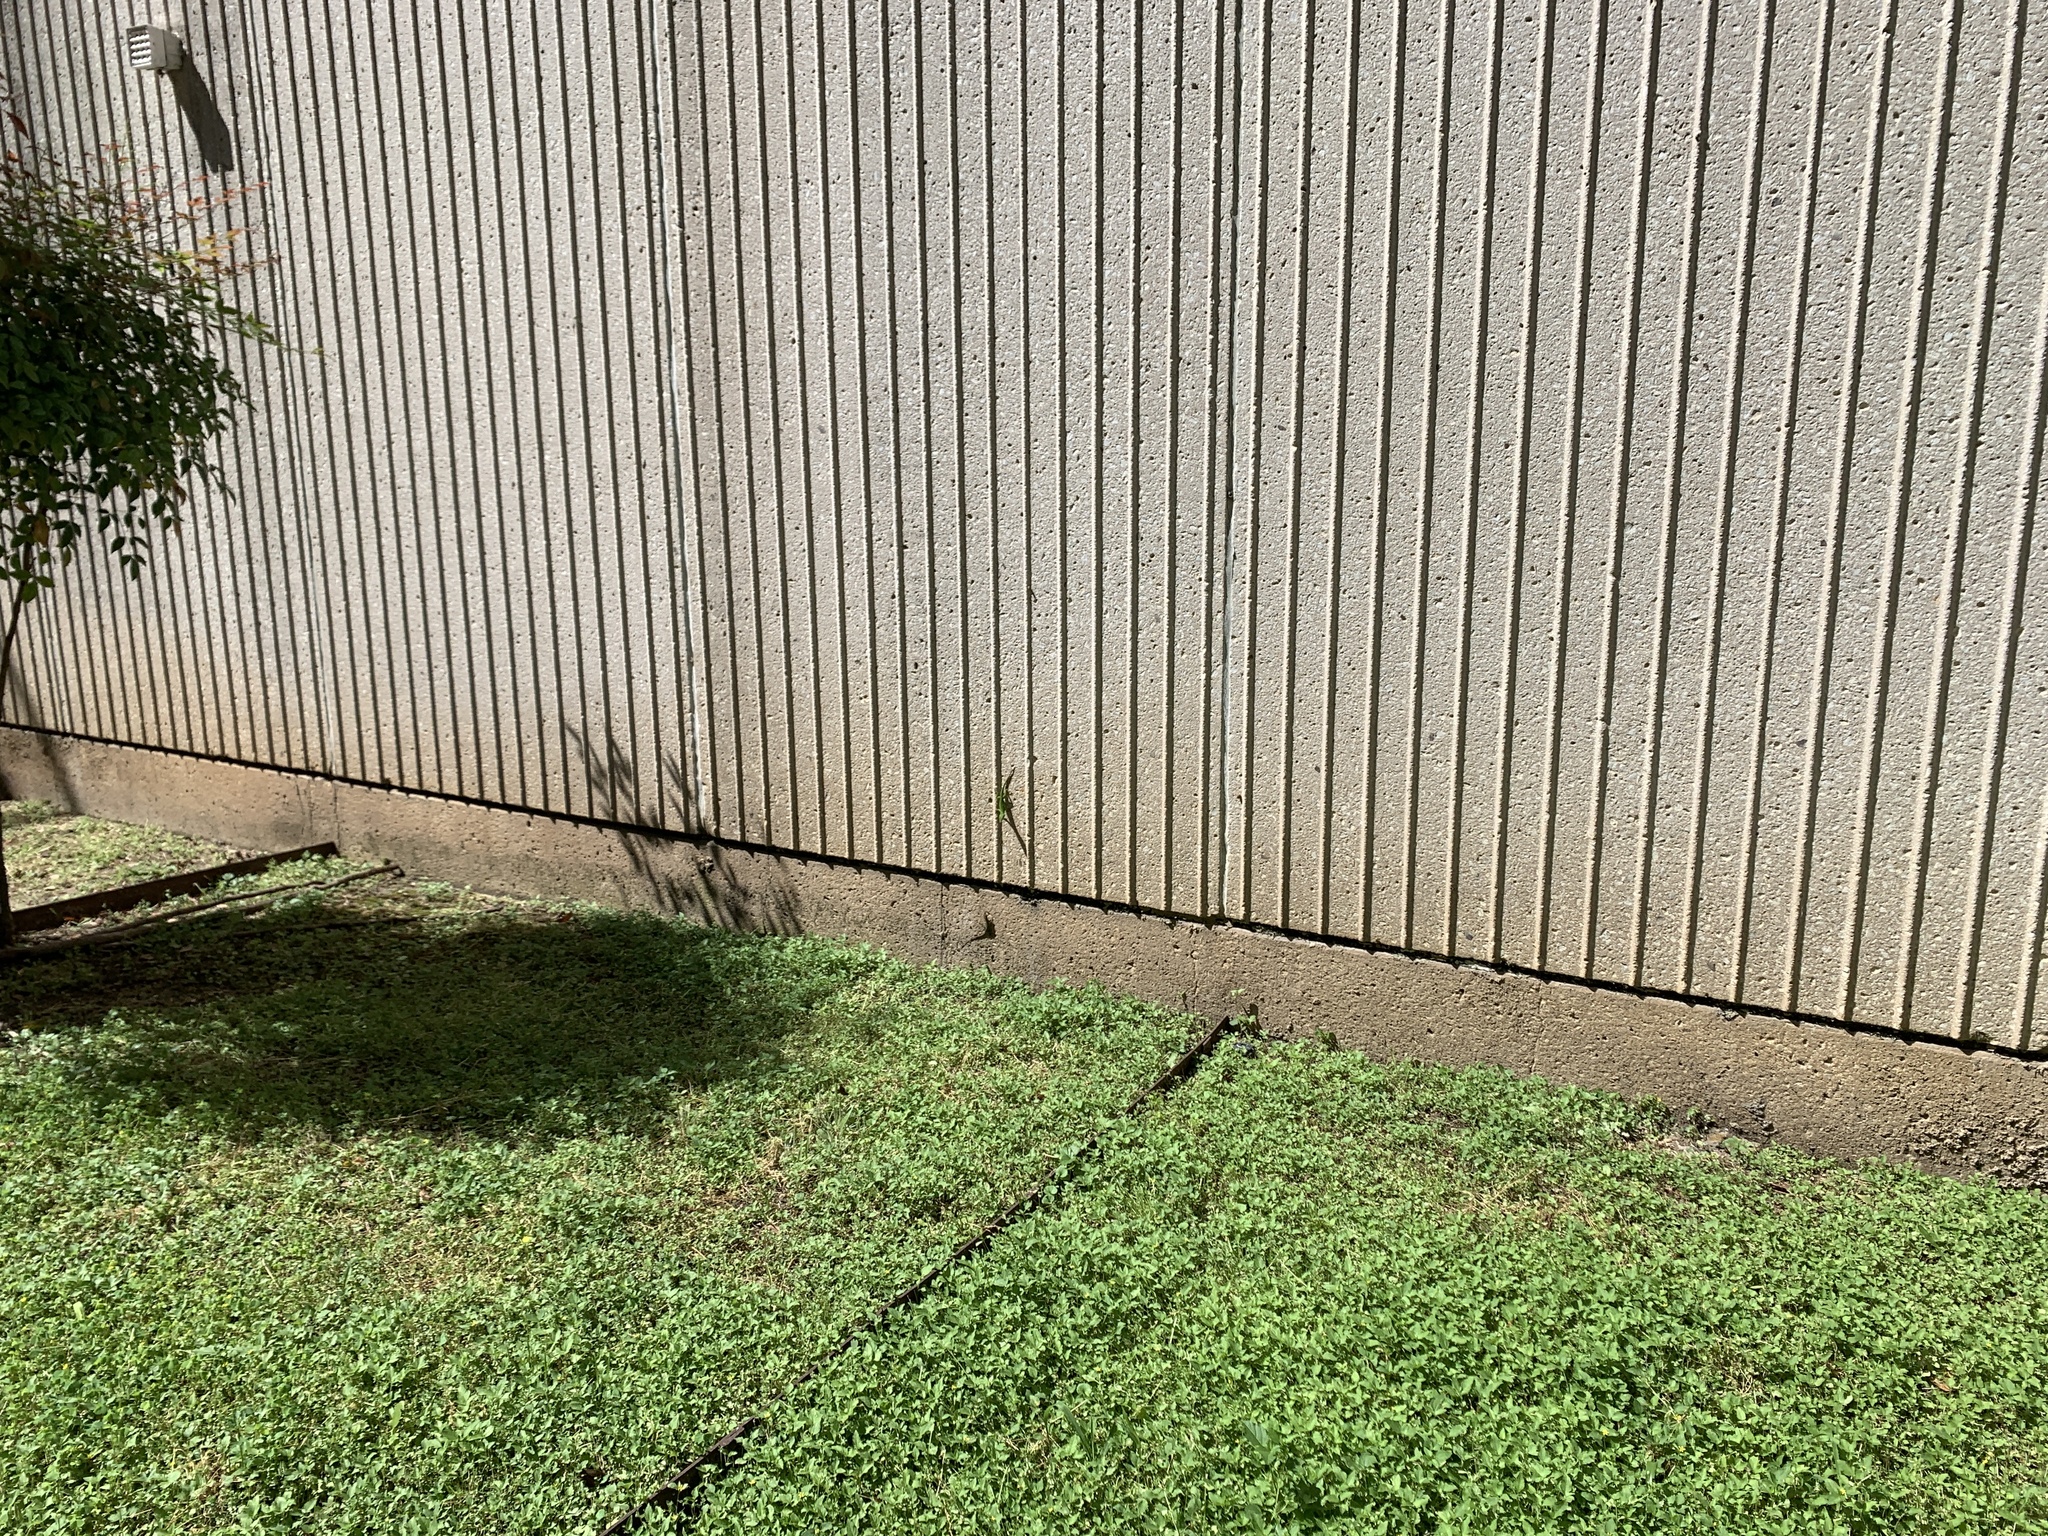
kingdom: Animalia
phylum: Chordata
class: Squamata
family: Dactyloidae
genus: Anolis
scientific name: Anolis carolinensis
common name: Green anole
